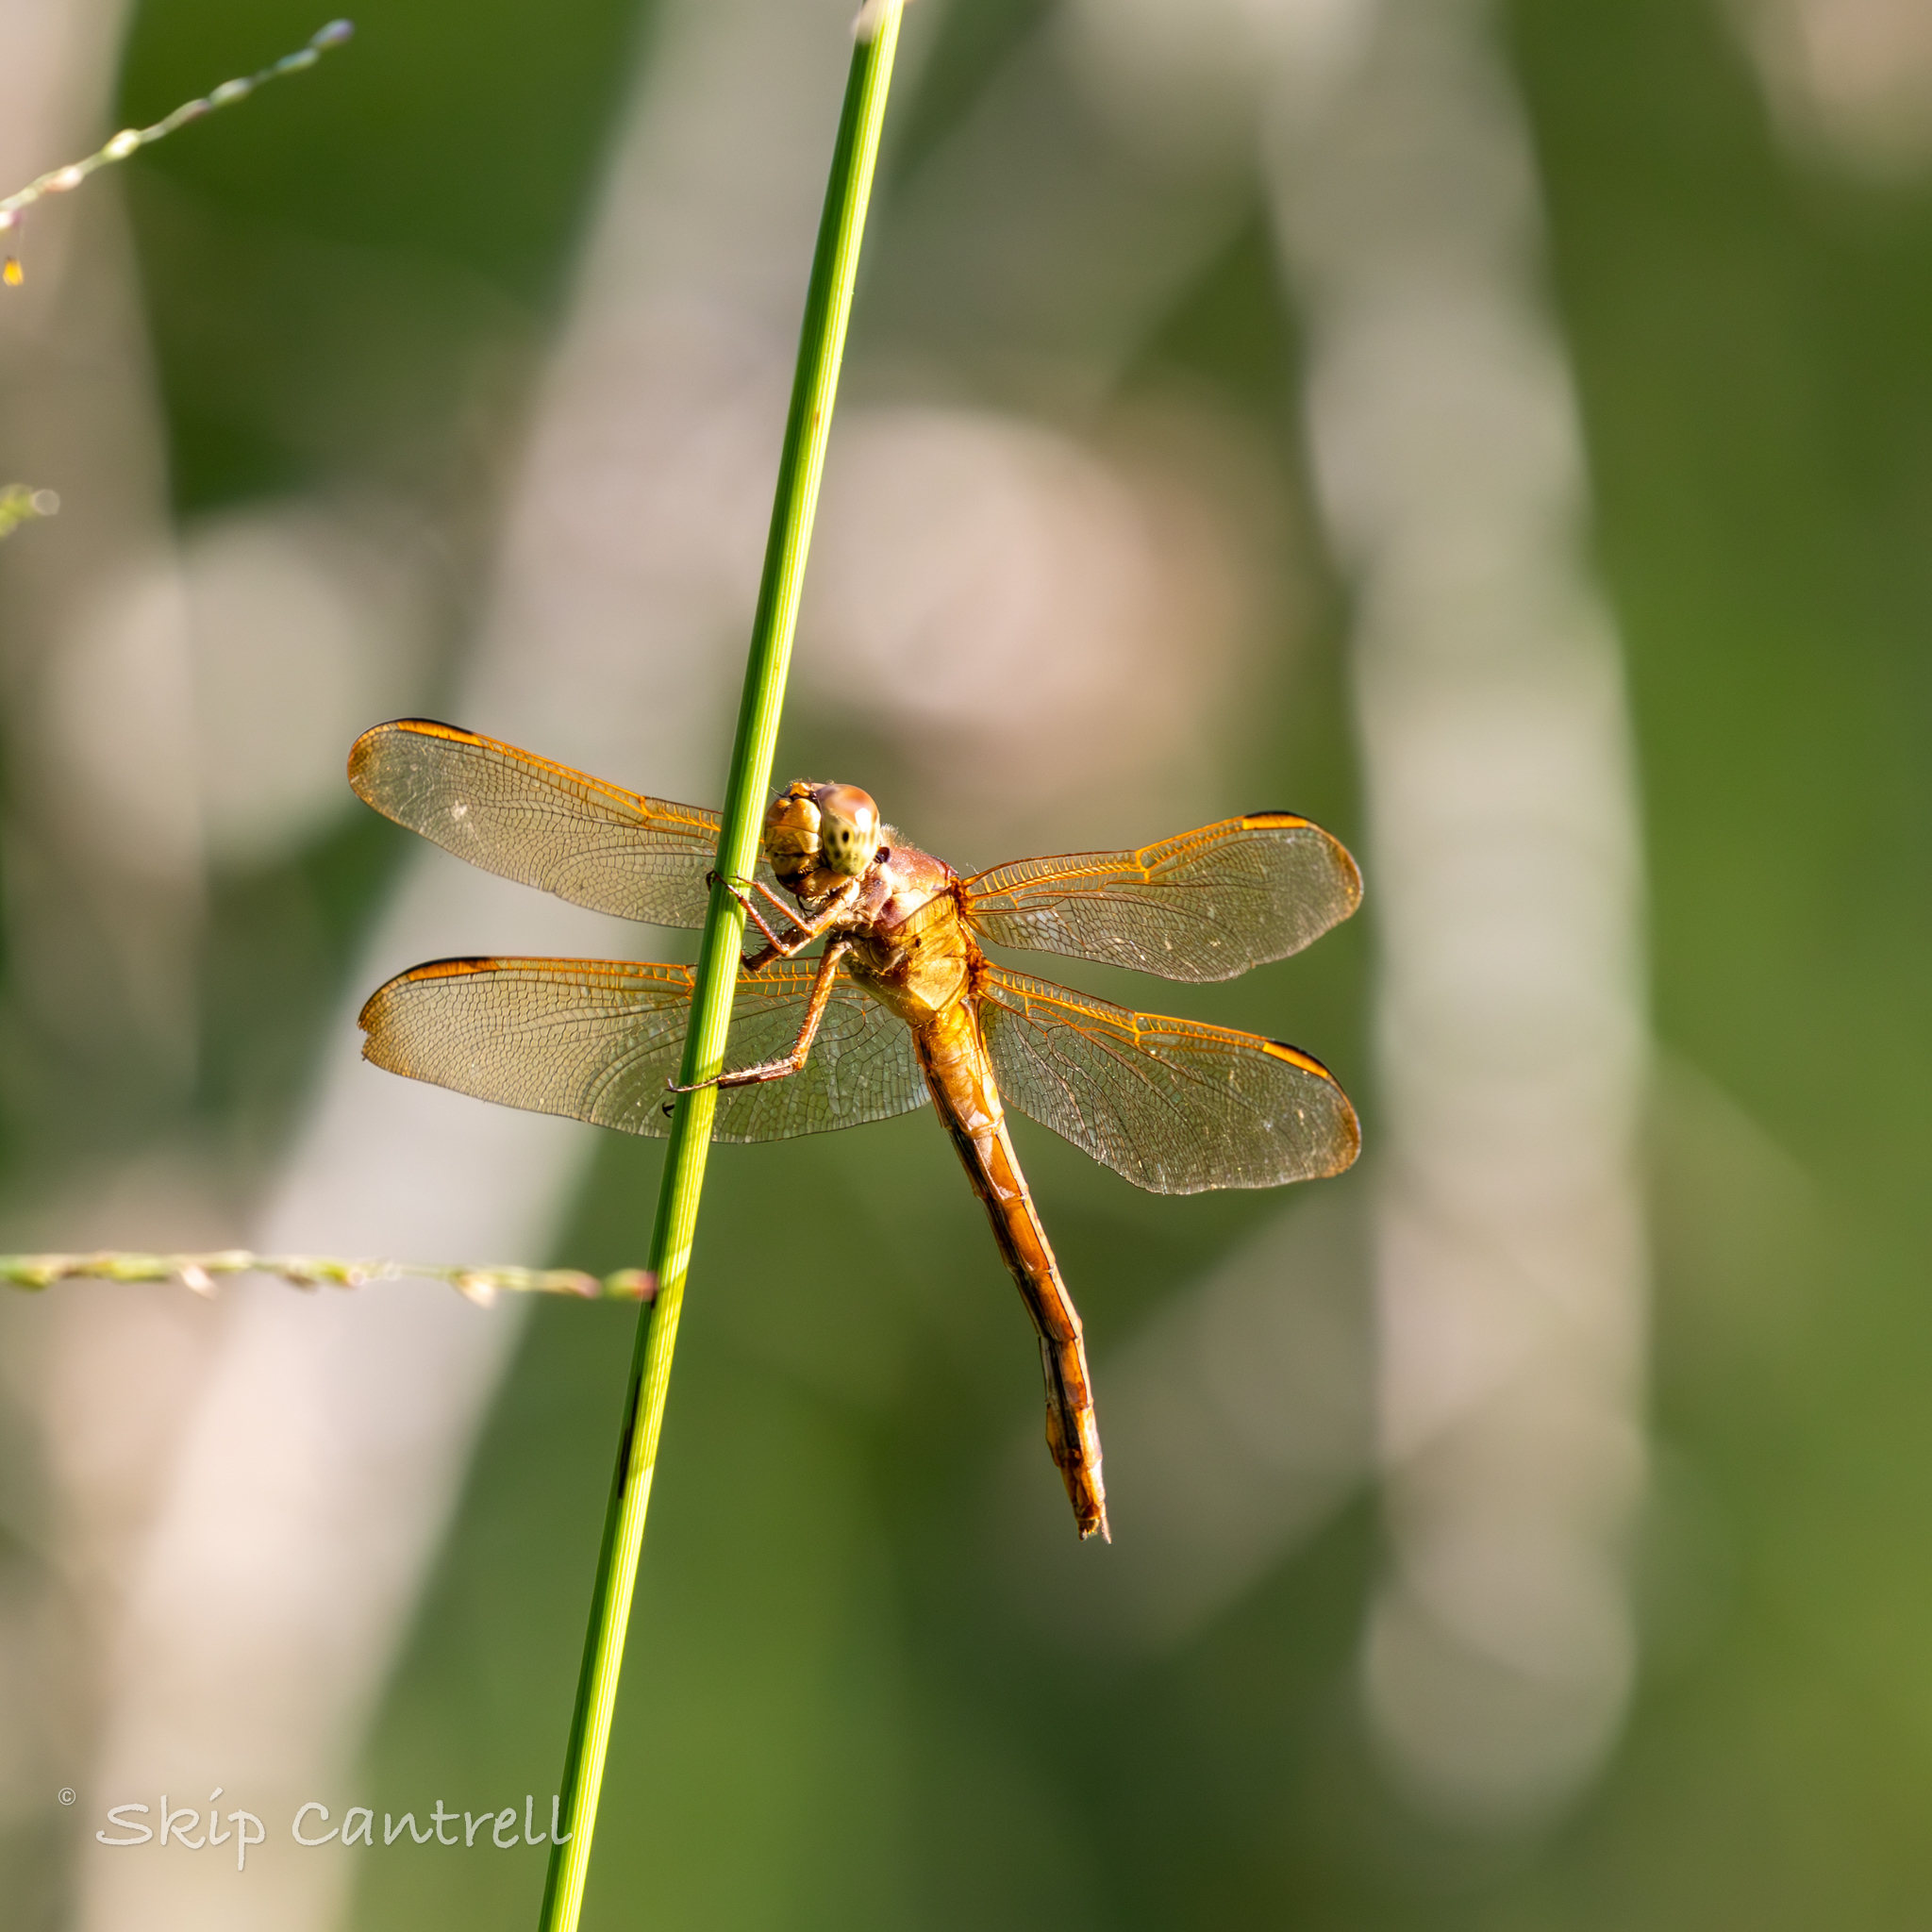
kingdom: Animalia
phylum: Arthropoda
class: Insecta
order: Odonata
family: Libellulidae
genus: Libellula
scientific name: Libellula needhami
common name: Needham's skimmer
